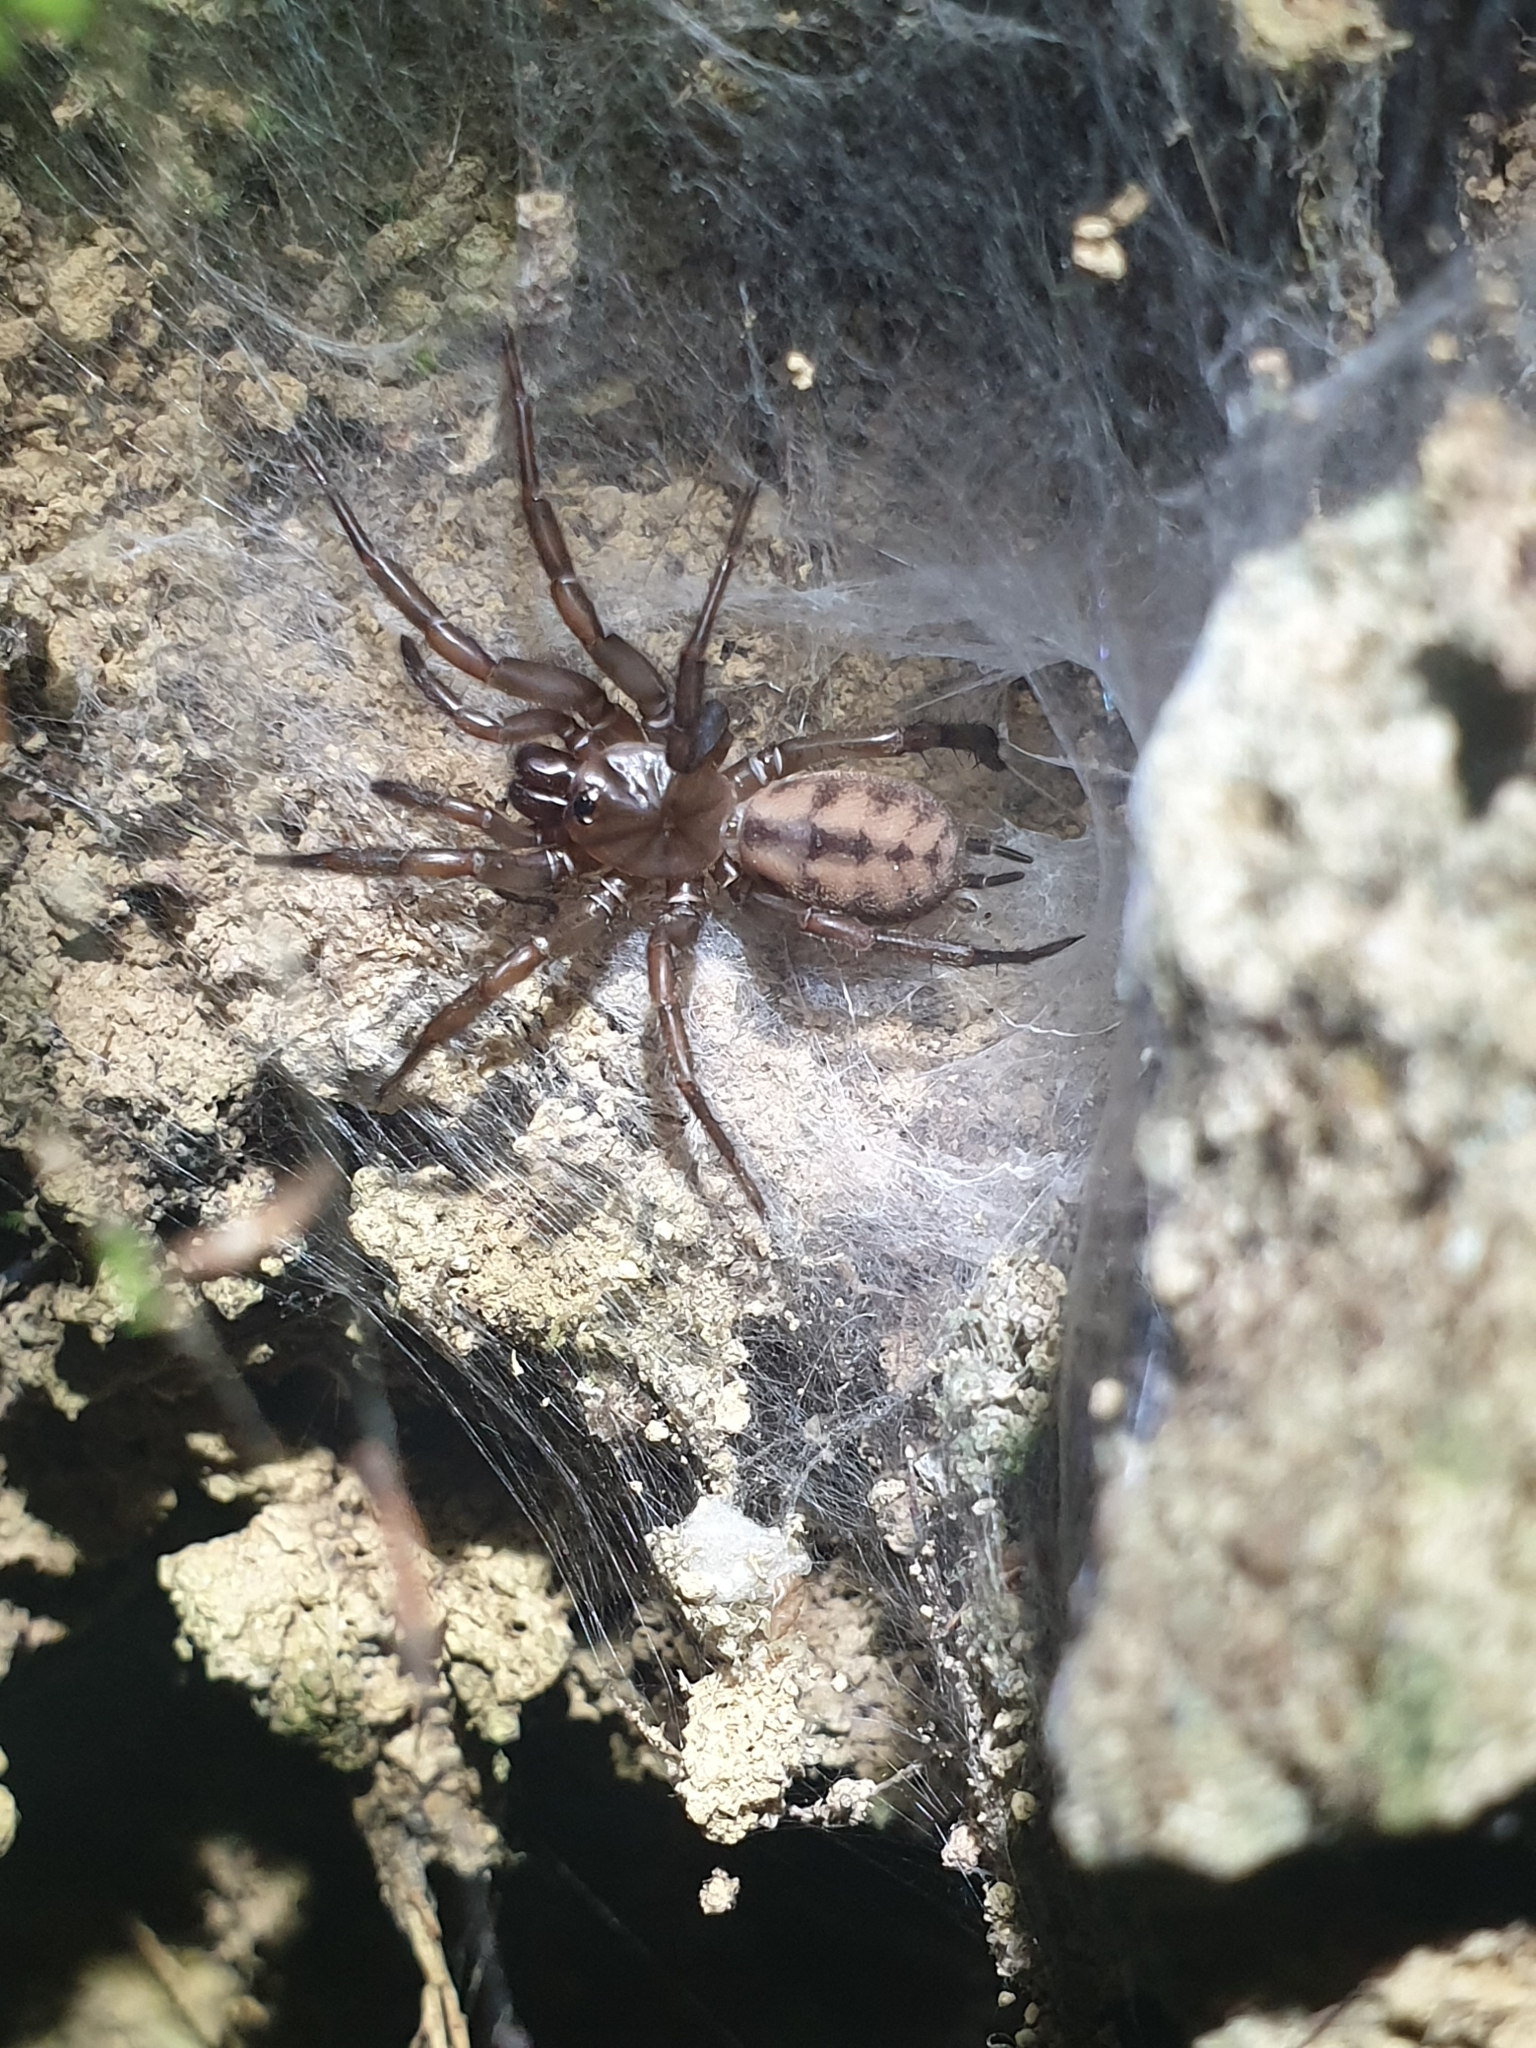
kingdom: Animalia
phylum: Arthropoda
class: Arachnida
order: Araneae
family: Hexathelidae
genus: Hexathele
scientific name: Hexathele kohua
